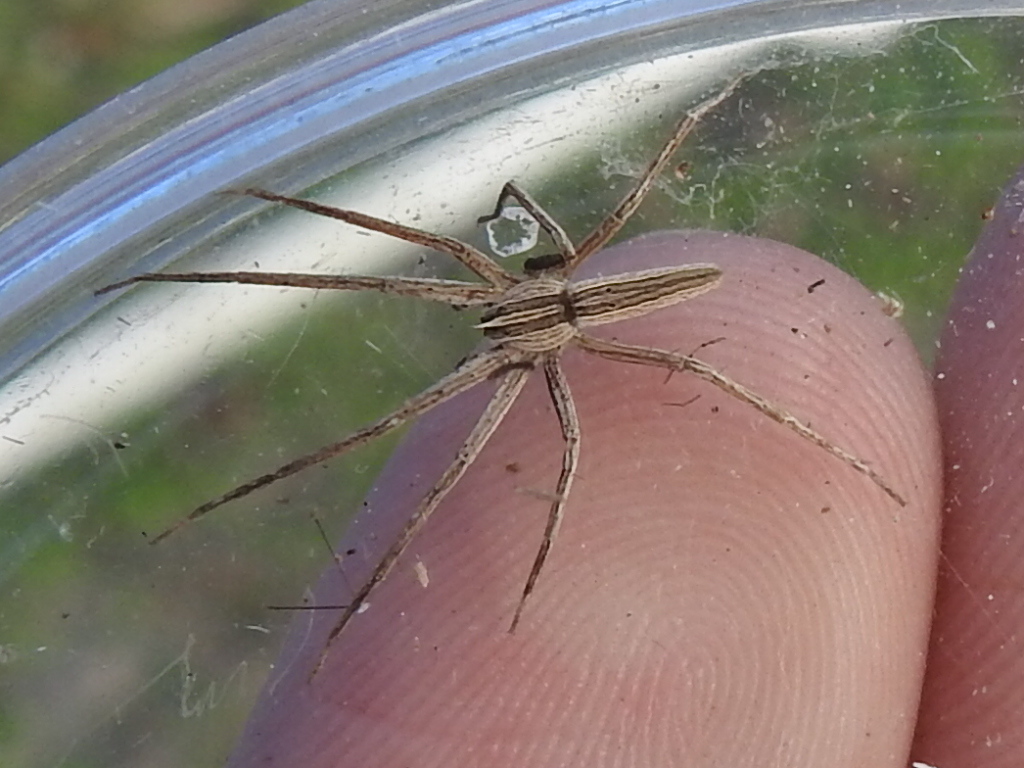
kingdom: Animalia
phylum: Arthropoda
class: Arachnida
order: Araneae
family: Pisauridae
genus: Pisaurina
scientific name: Pisaurina dubia
